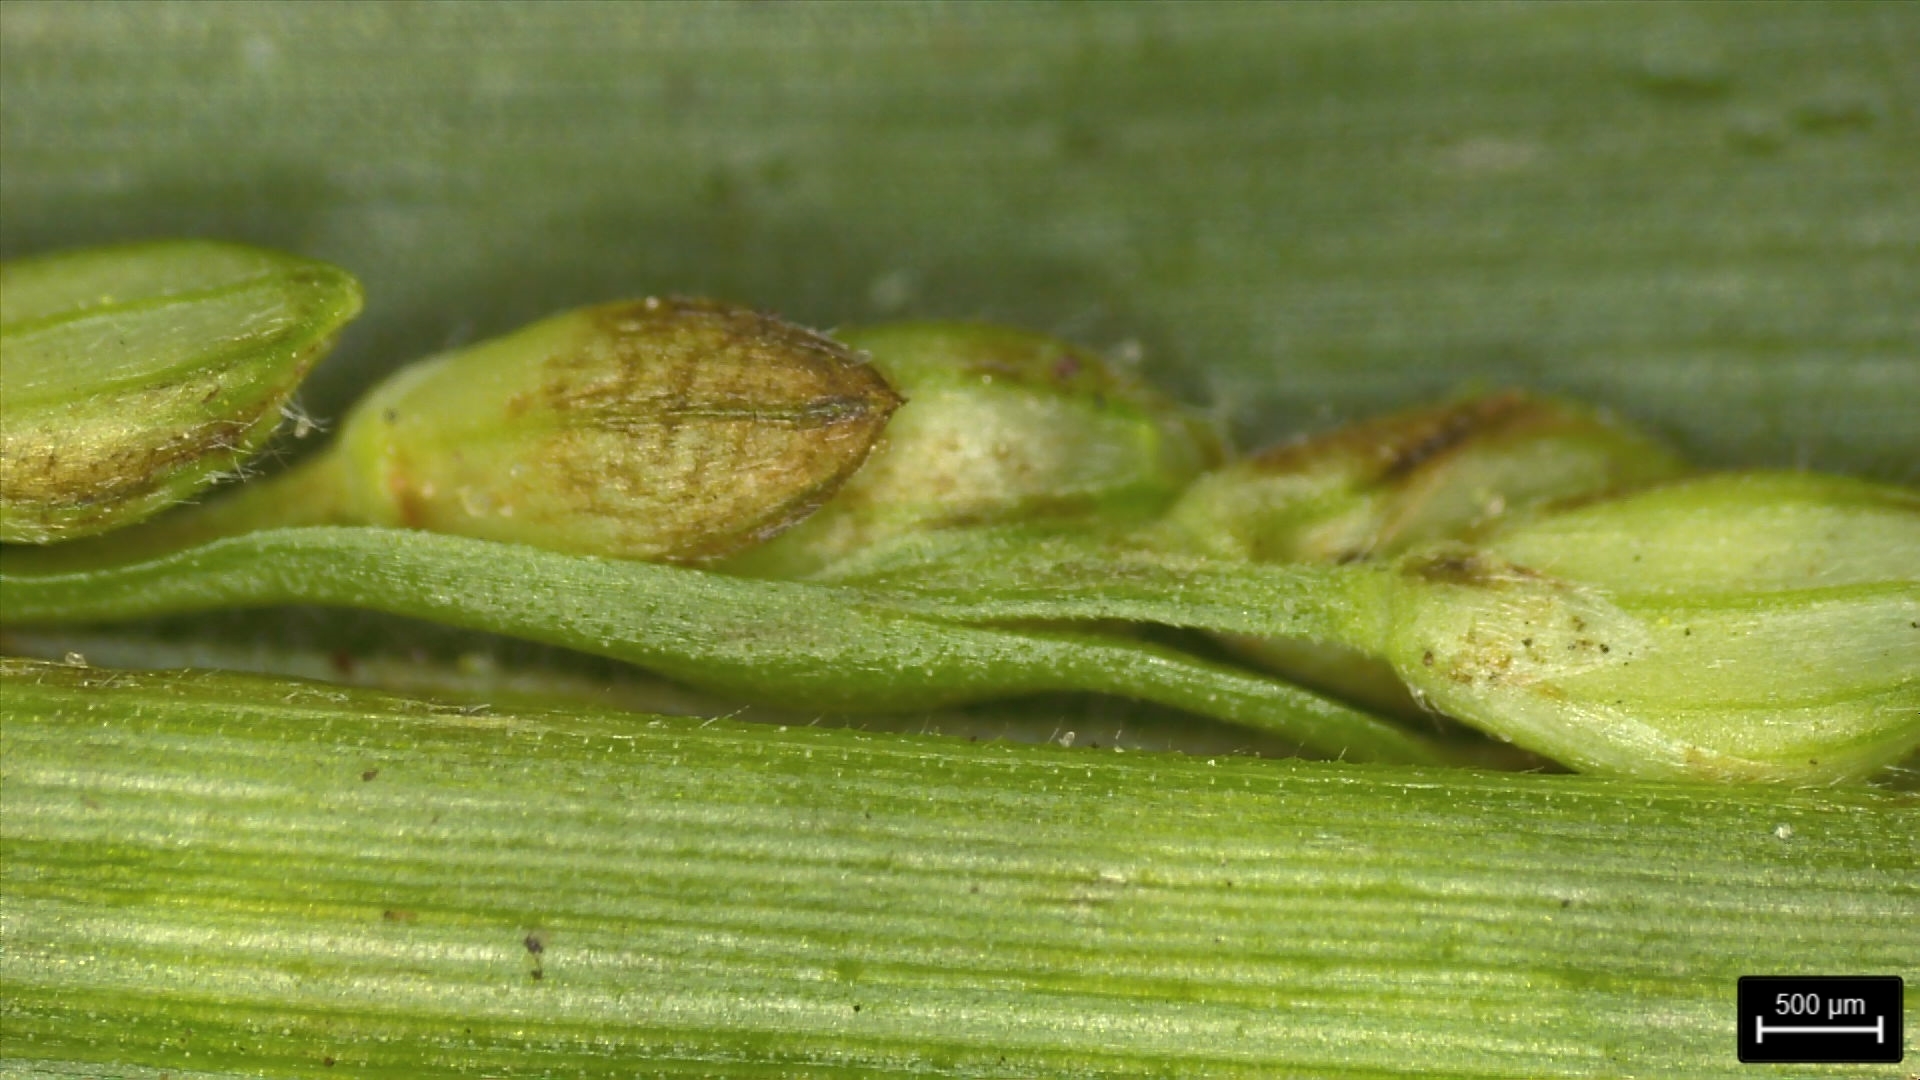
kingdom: Plantae
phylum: Tracheophyta
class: Liliopsida
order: Poales
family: Poaceae
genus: Paspalum
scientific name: Paspalum langei
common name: Rusty-seed paspalum
